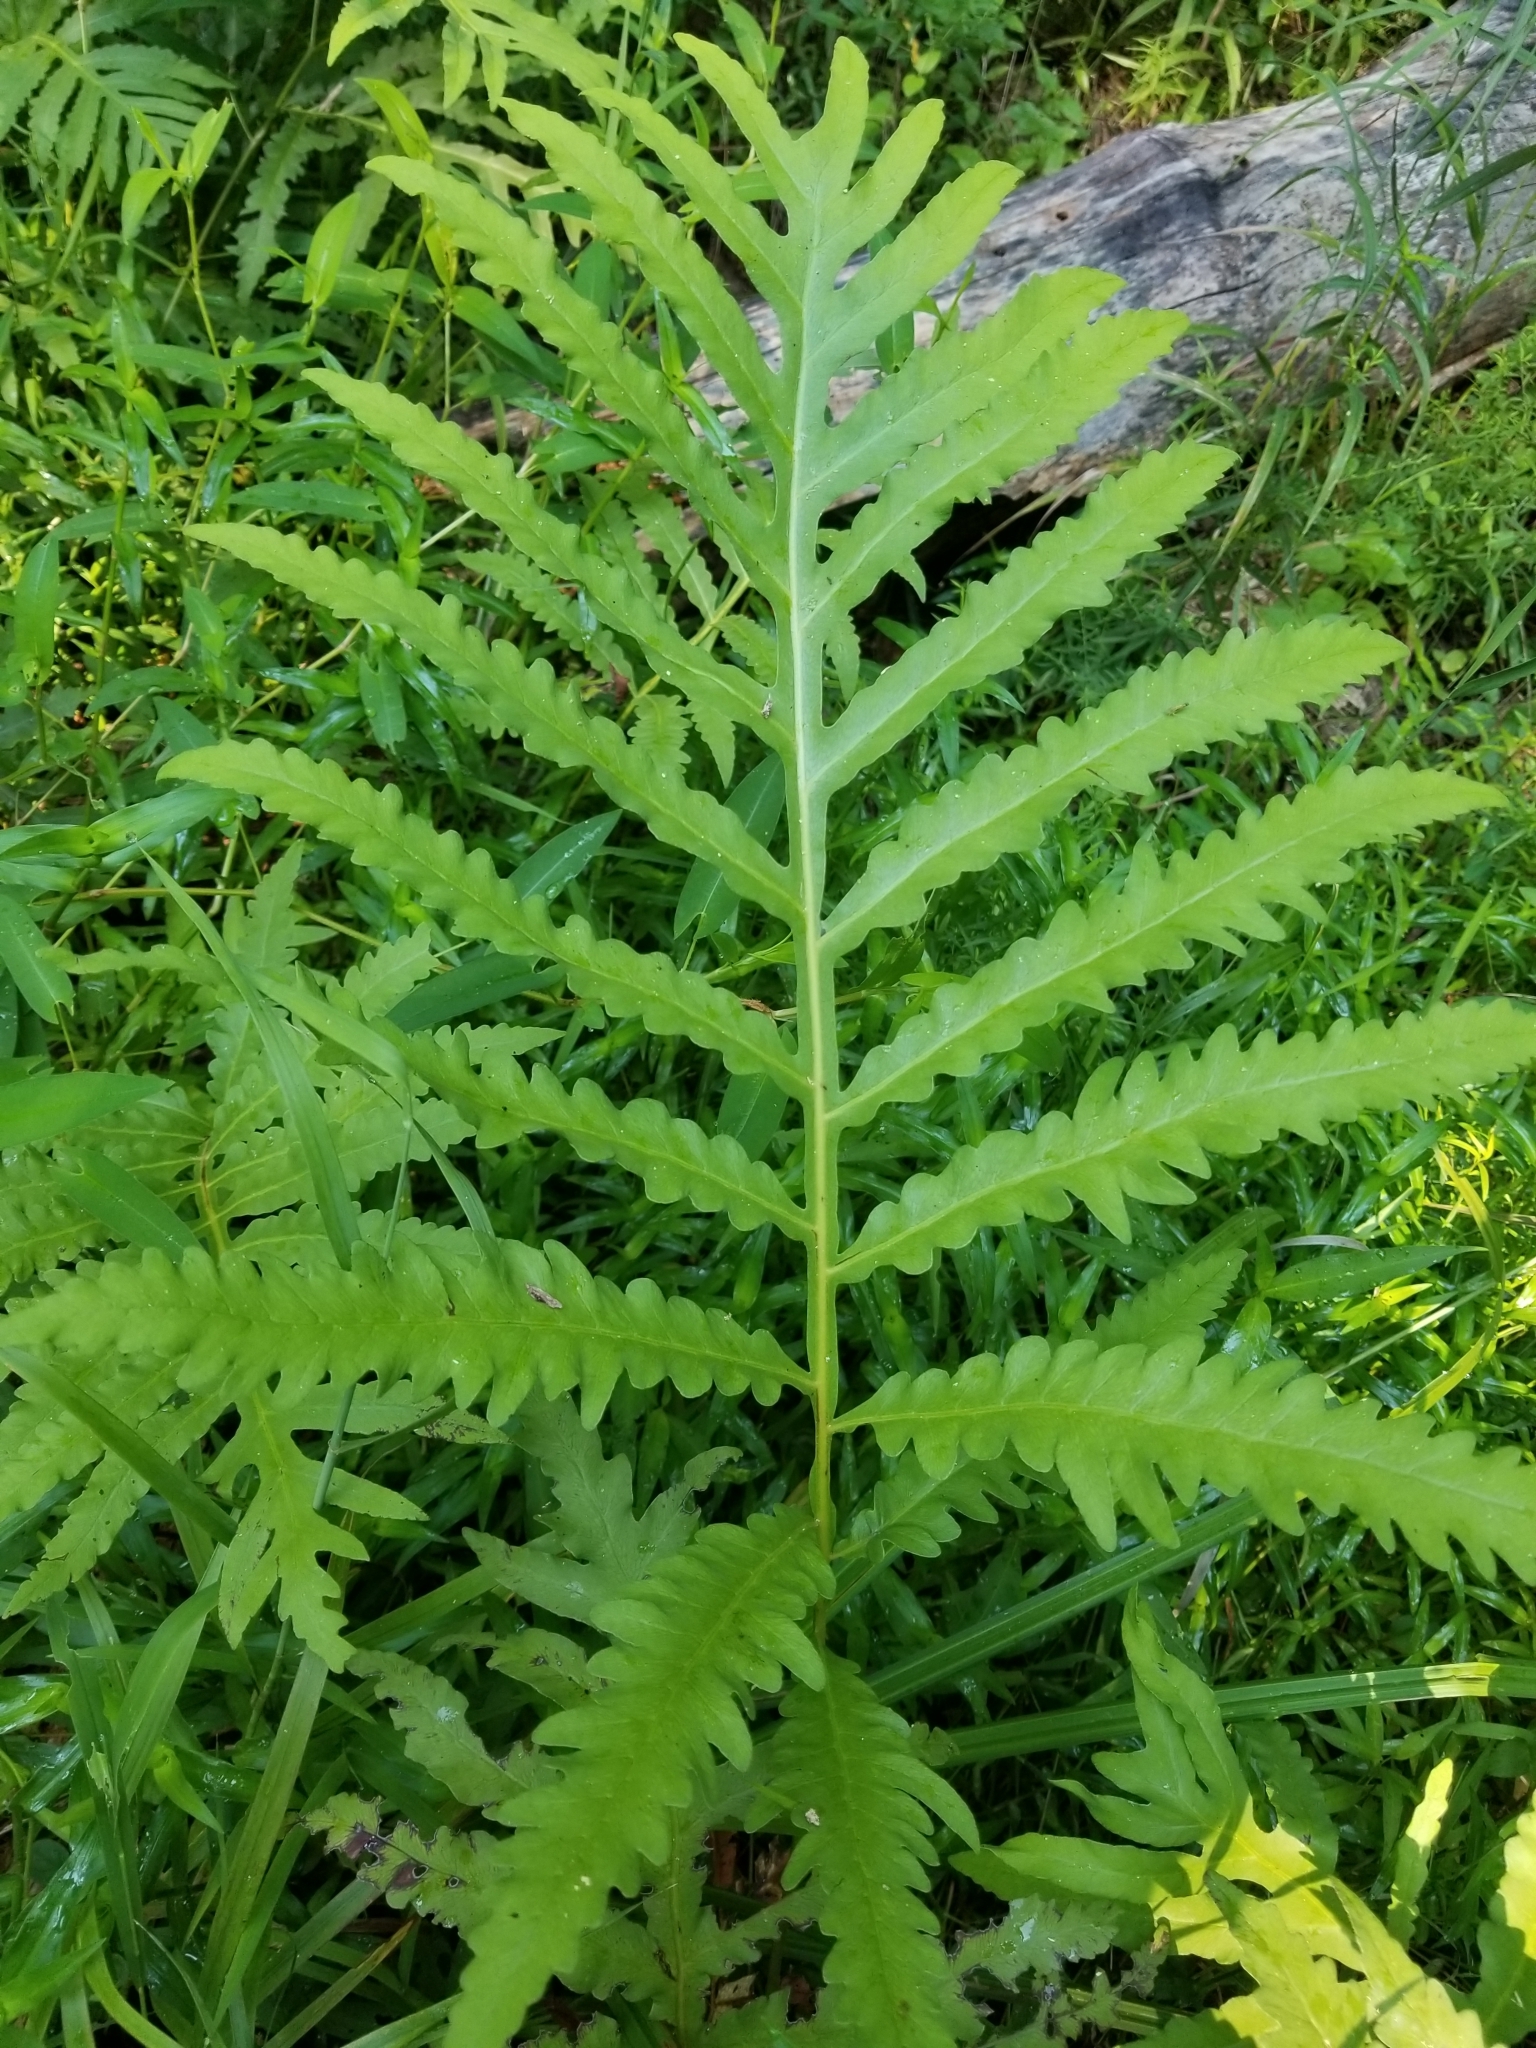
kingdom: Plantae
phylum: Tracheophyta
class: Polypodiopsida
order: Polypodiales
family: Onocleaceae
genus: Onoclea
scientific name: Onoclea sensibilis
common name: Sensitive fern
